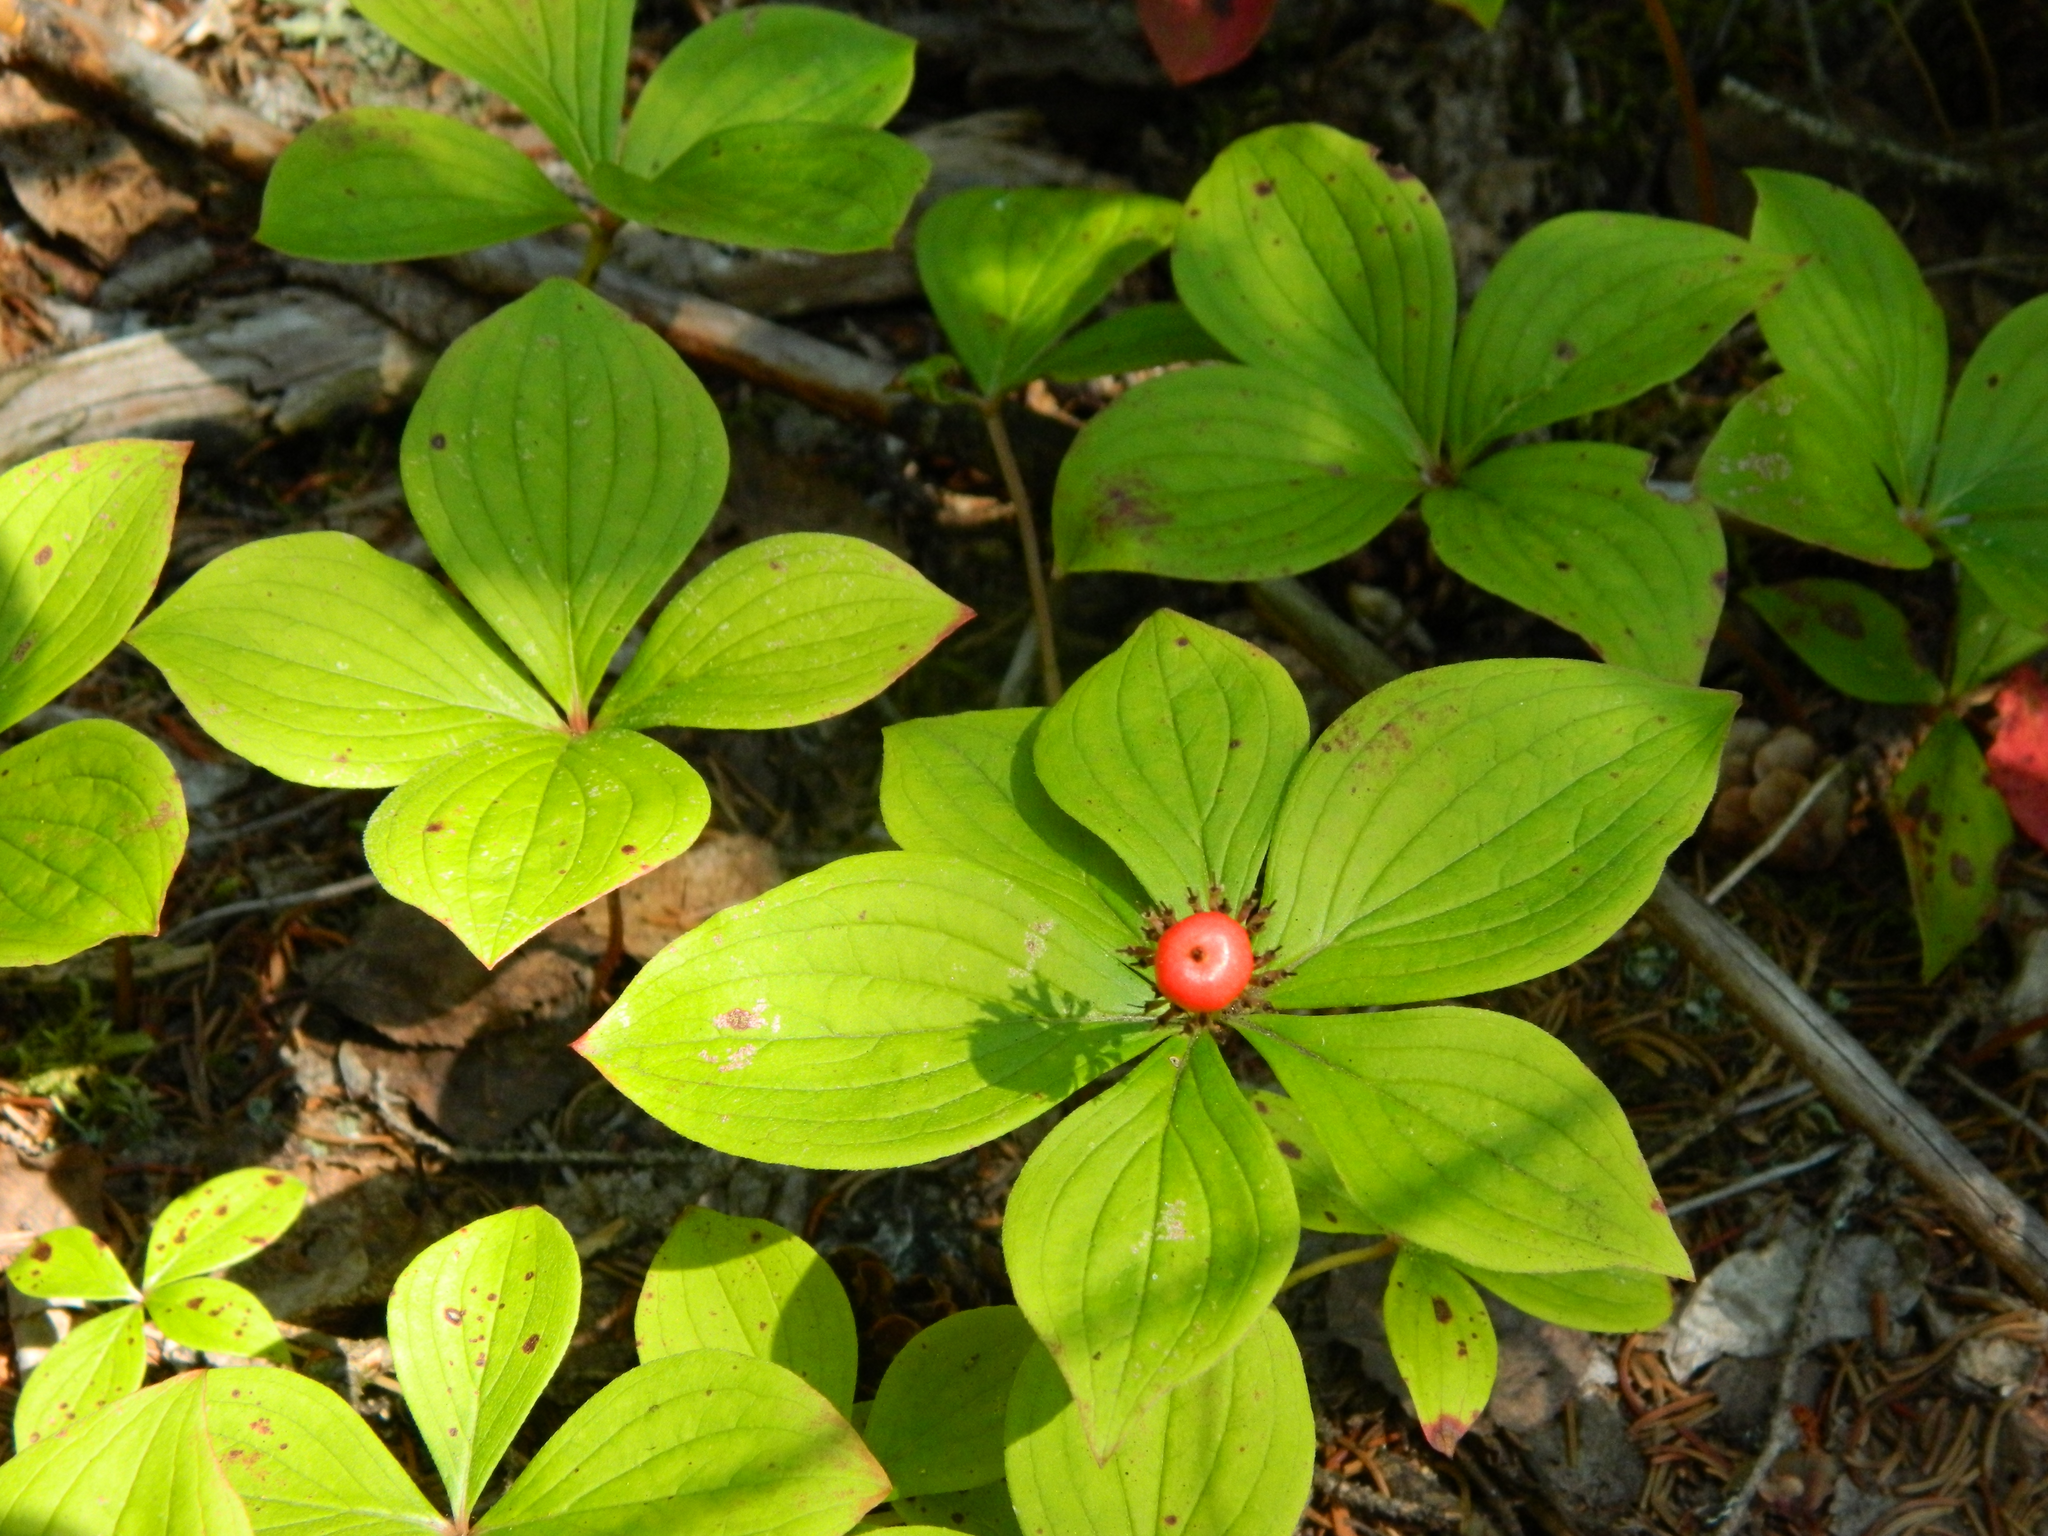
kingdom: Plantae
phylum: Tracheophyta
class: Magnoliopsida
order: Cornales
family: Cornaceae
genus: Cornus
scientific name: Cornus canadensis
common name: Creeping dogwood
